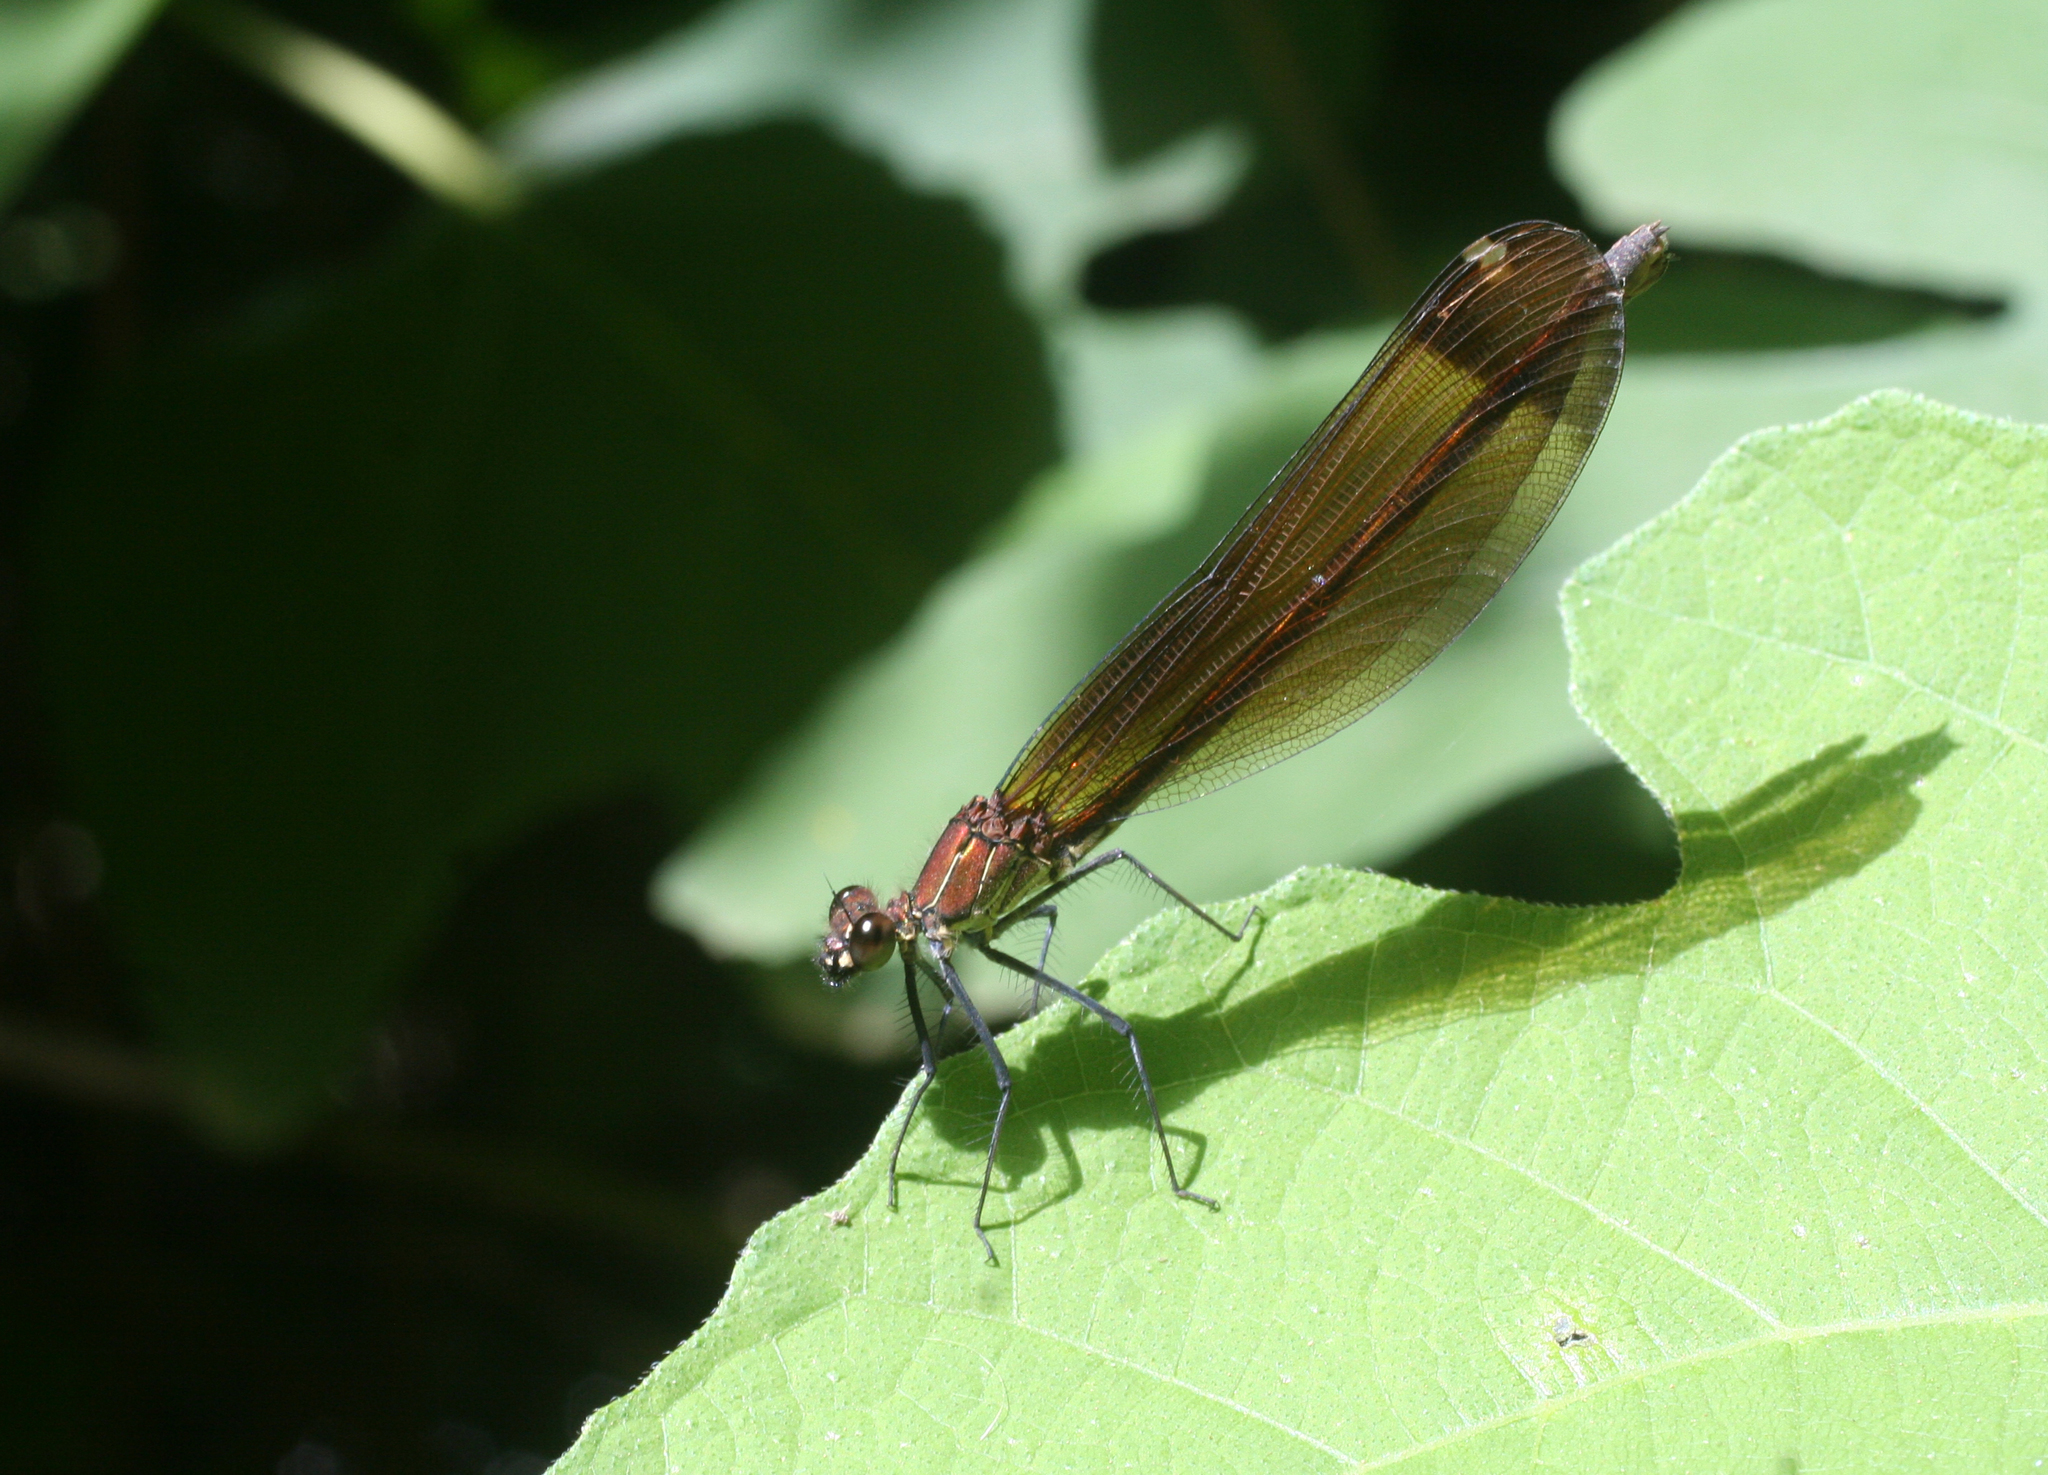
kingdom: Animalia
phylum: Arthropoda
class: Insecta
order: Odonata
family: Calopterygidae
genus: Calopteryx
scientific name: Calopteryx haemorrhoidalis
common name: Copper demoiselle
